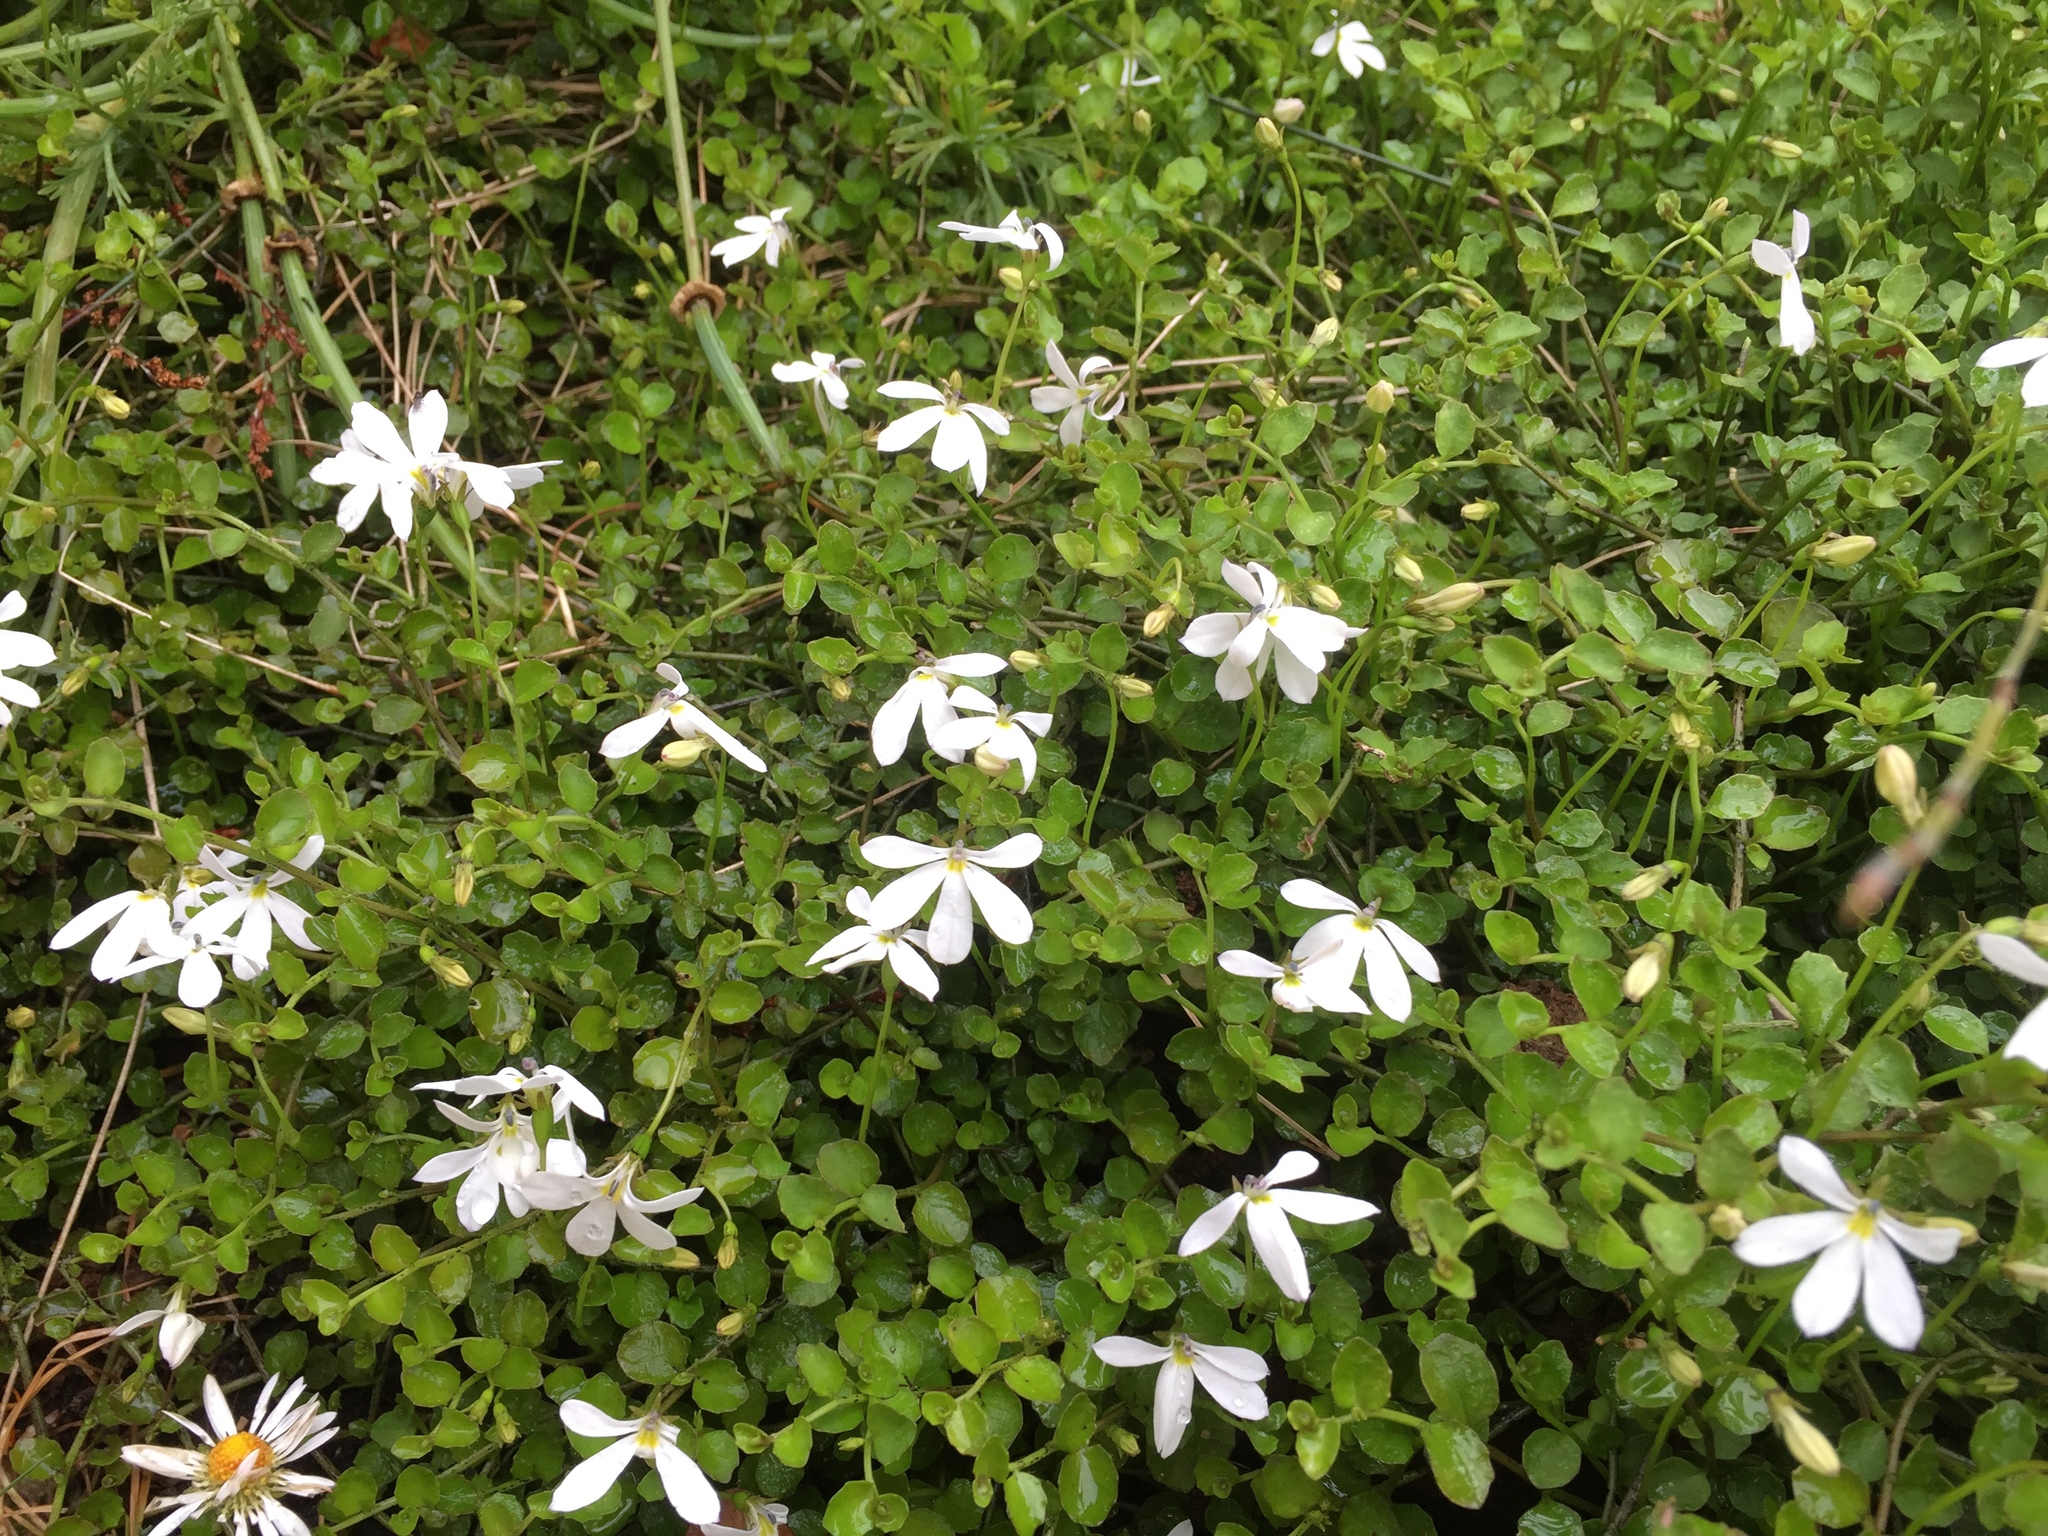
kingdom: Plantae
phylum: Tracheophyta
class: Magnoliopsida
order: Asterales
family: Campanulaceae
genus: Lobelia
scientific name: Lobelia angulata
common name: Lawn lobelia
